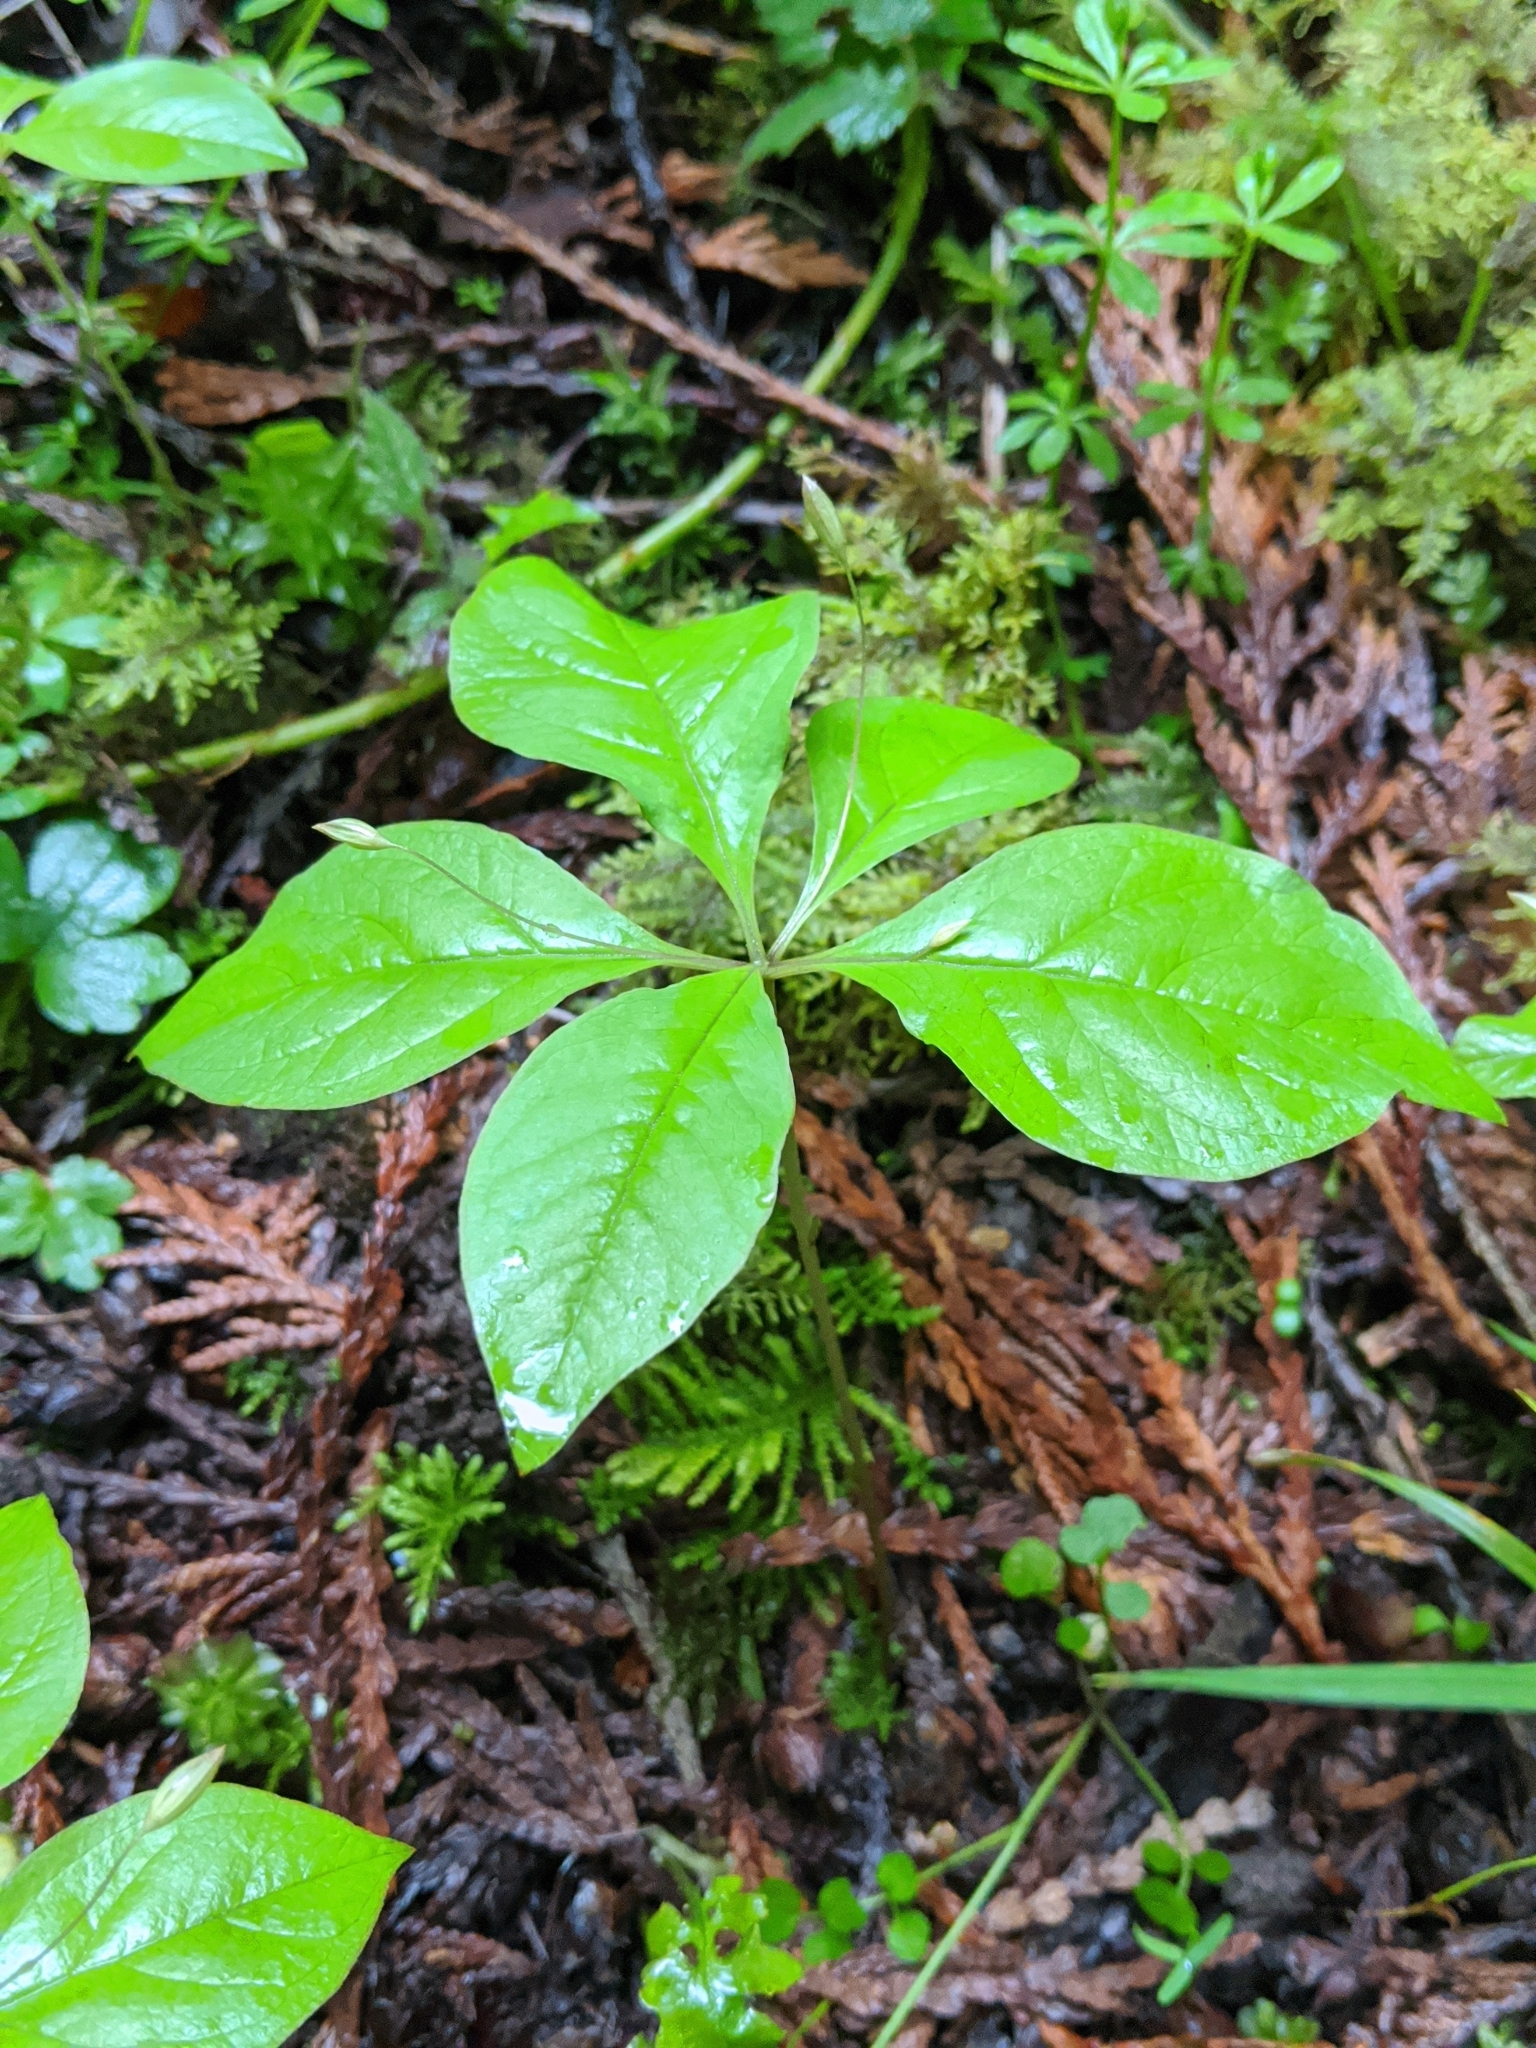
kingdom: Plantae
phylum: Tracheophyta
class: Magnoliopsida
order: Ericales
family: Primulaceae
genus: Lysimachia
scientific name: Lysimachia latifolia
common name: Pacific starflower
